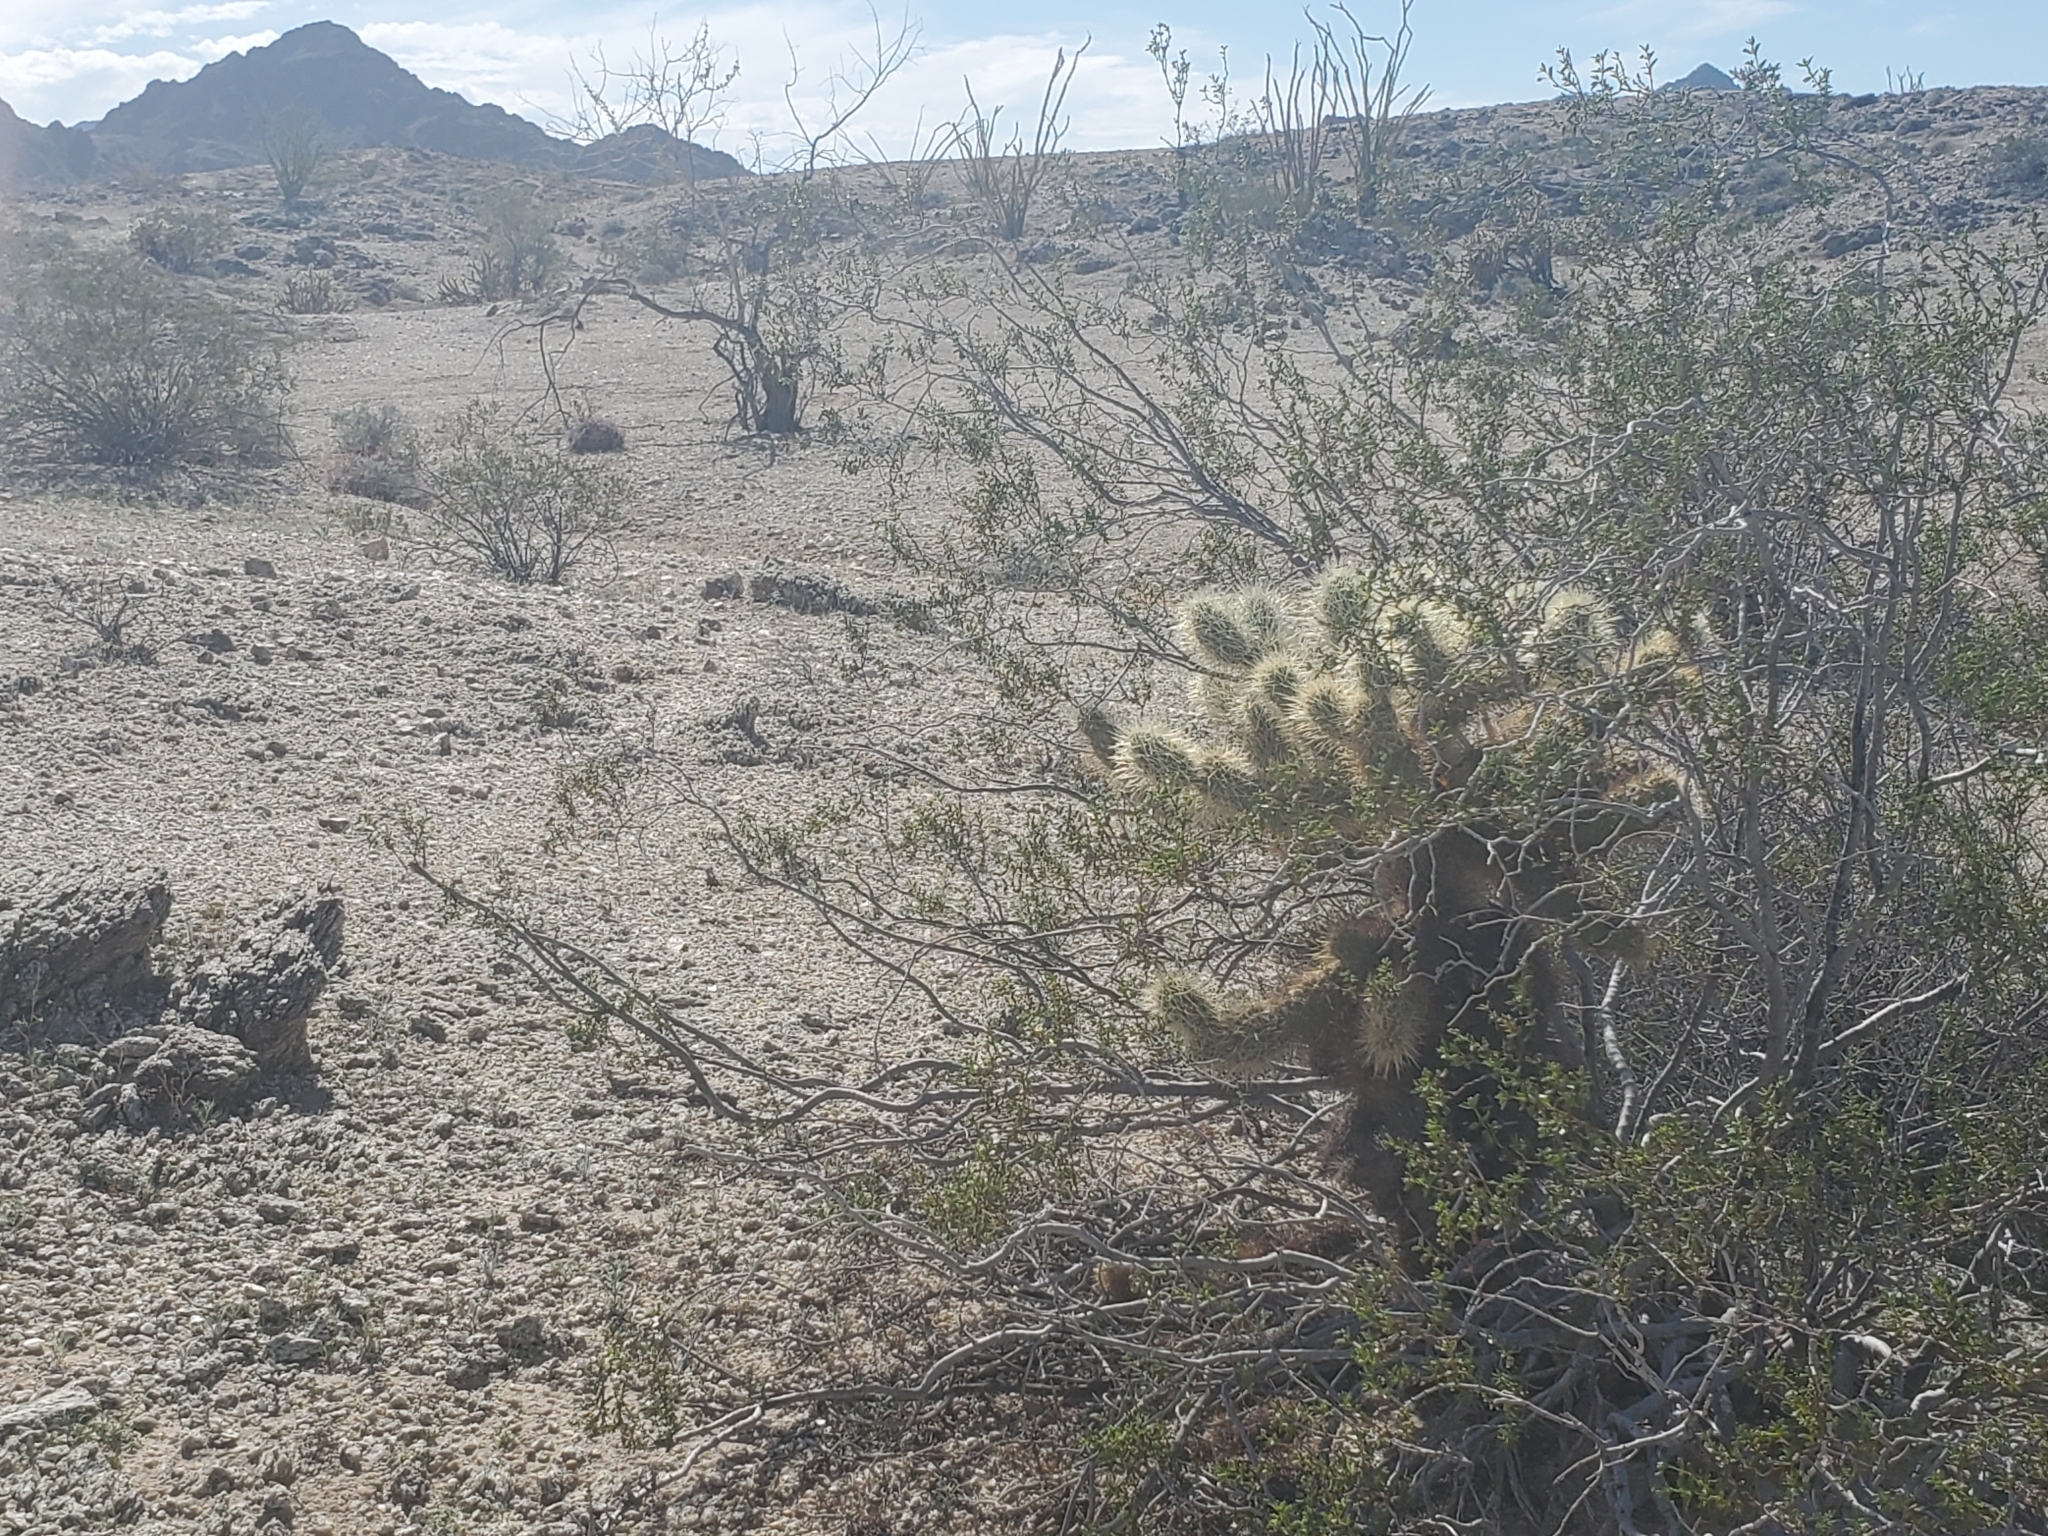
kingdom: Plantae
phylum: Tracheophyta
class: Magnoliopsida
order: Caryophyllales
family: Cactaceae
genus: Cylindropuntia
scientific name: Cylindropuntia fosbergii
